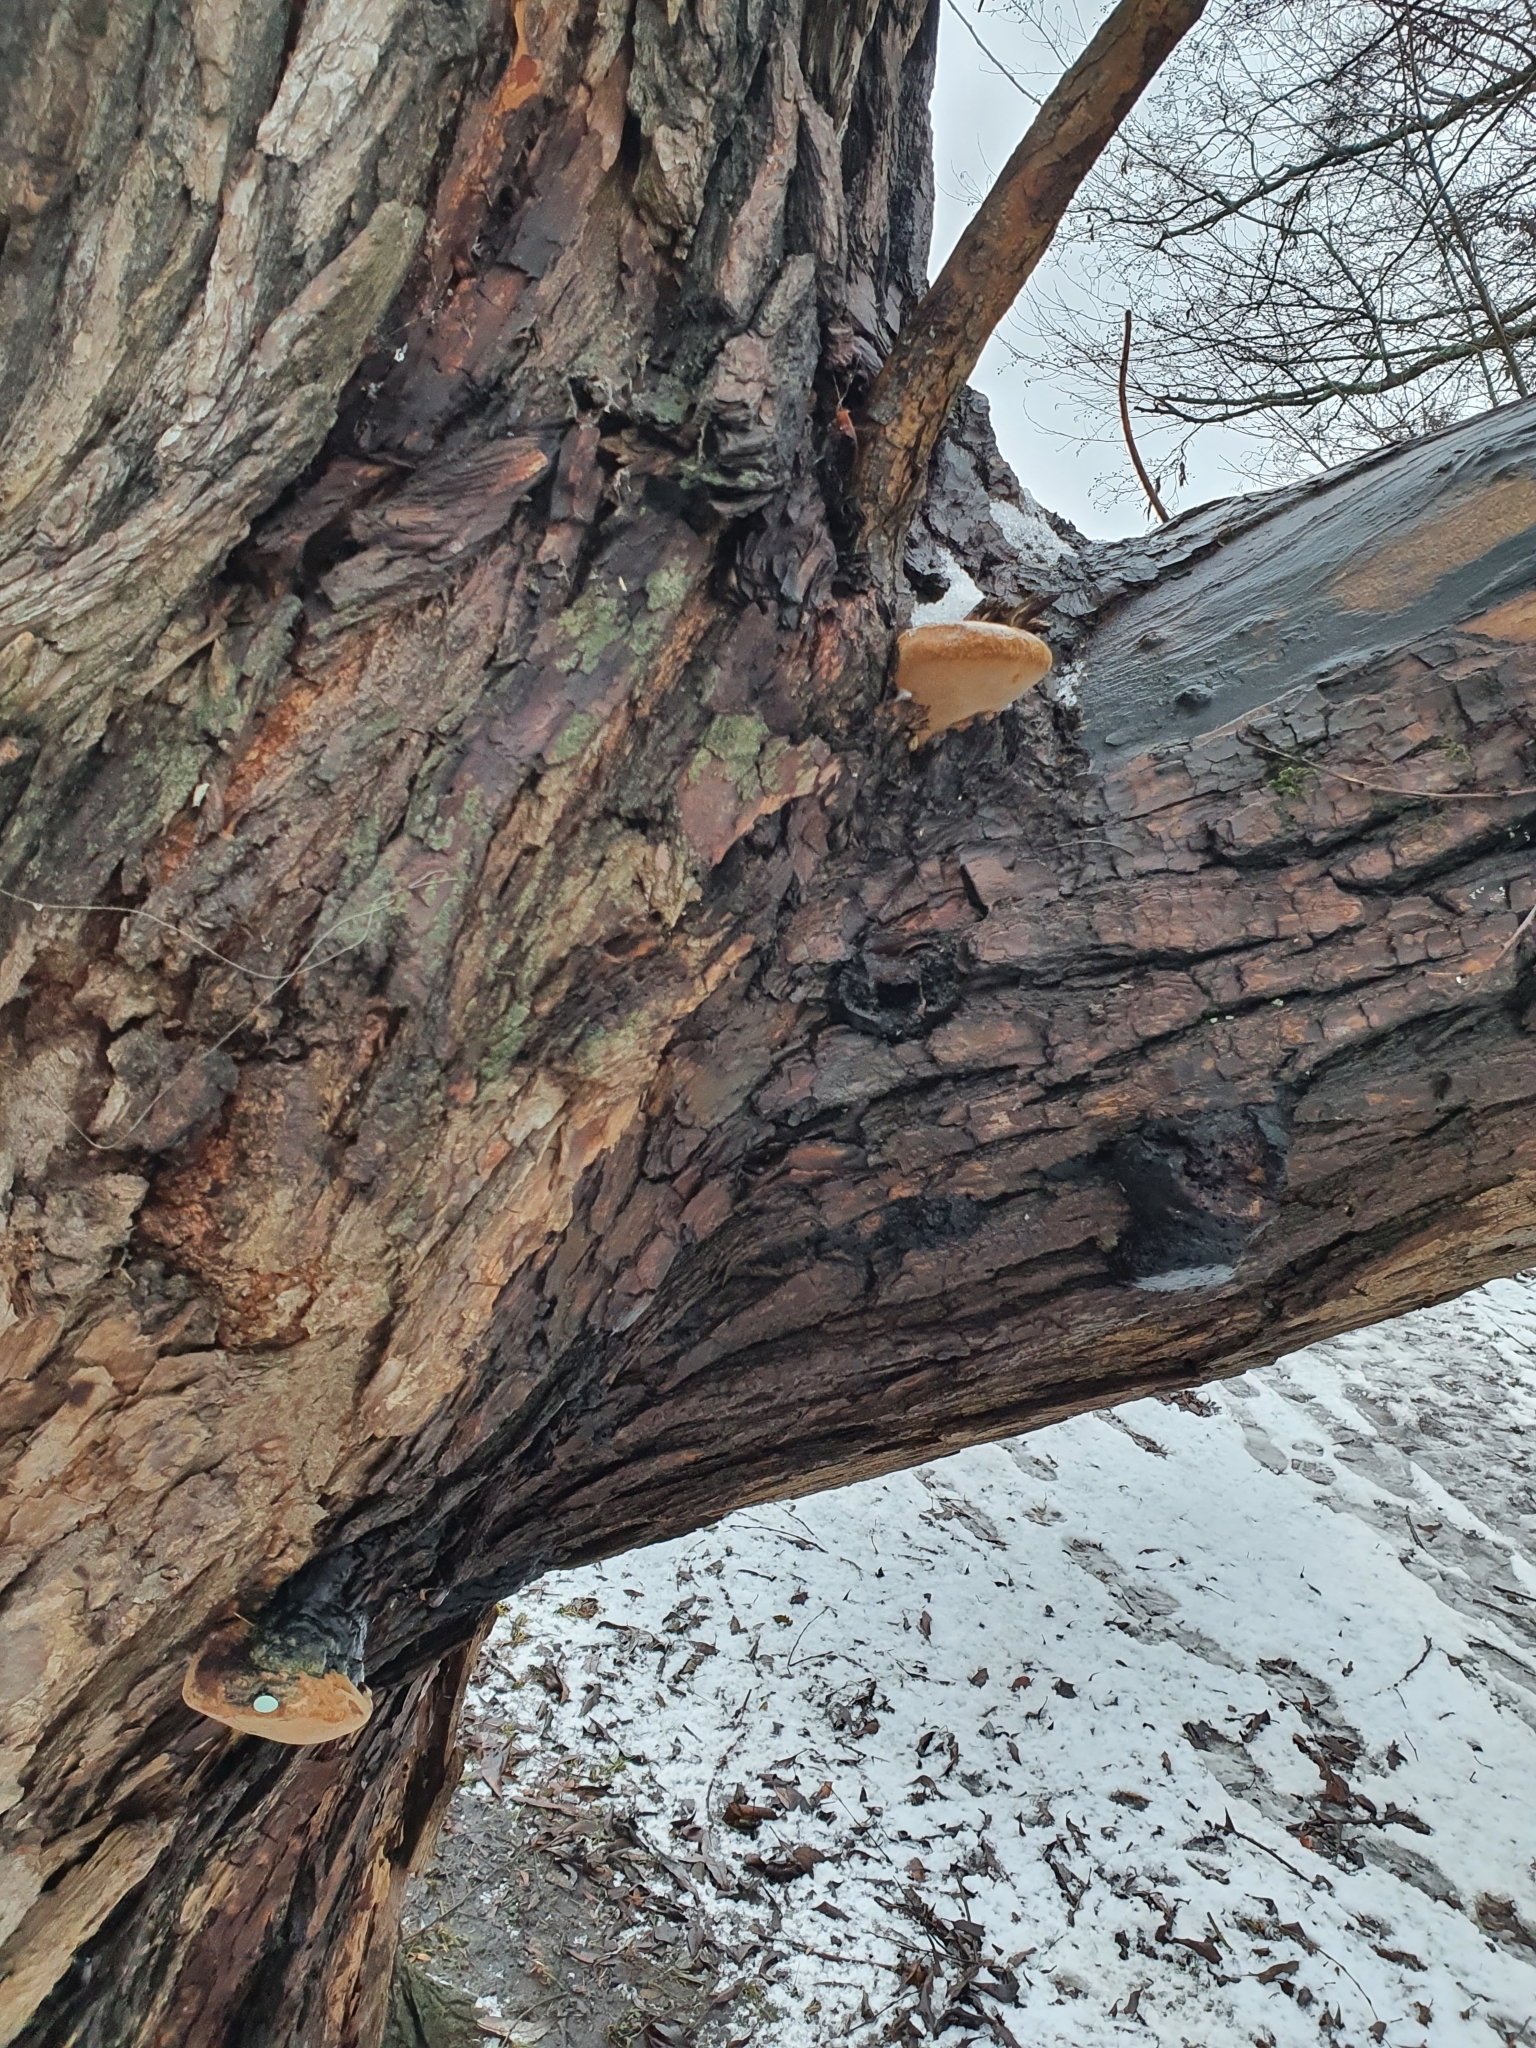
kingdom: Fungi
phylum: Basidiomycota
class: Agaricomycetes
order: Hymenochaetales
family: Hymenochaetaceae
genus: Phellinus
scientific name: Phellinus igniarius
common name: Willow bracket
